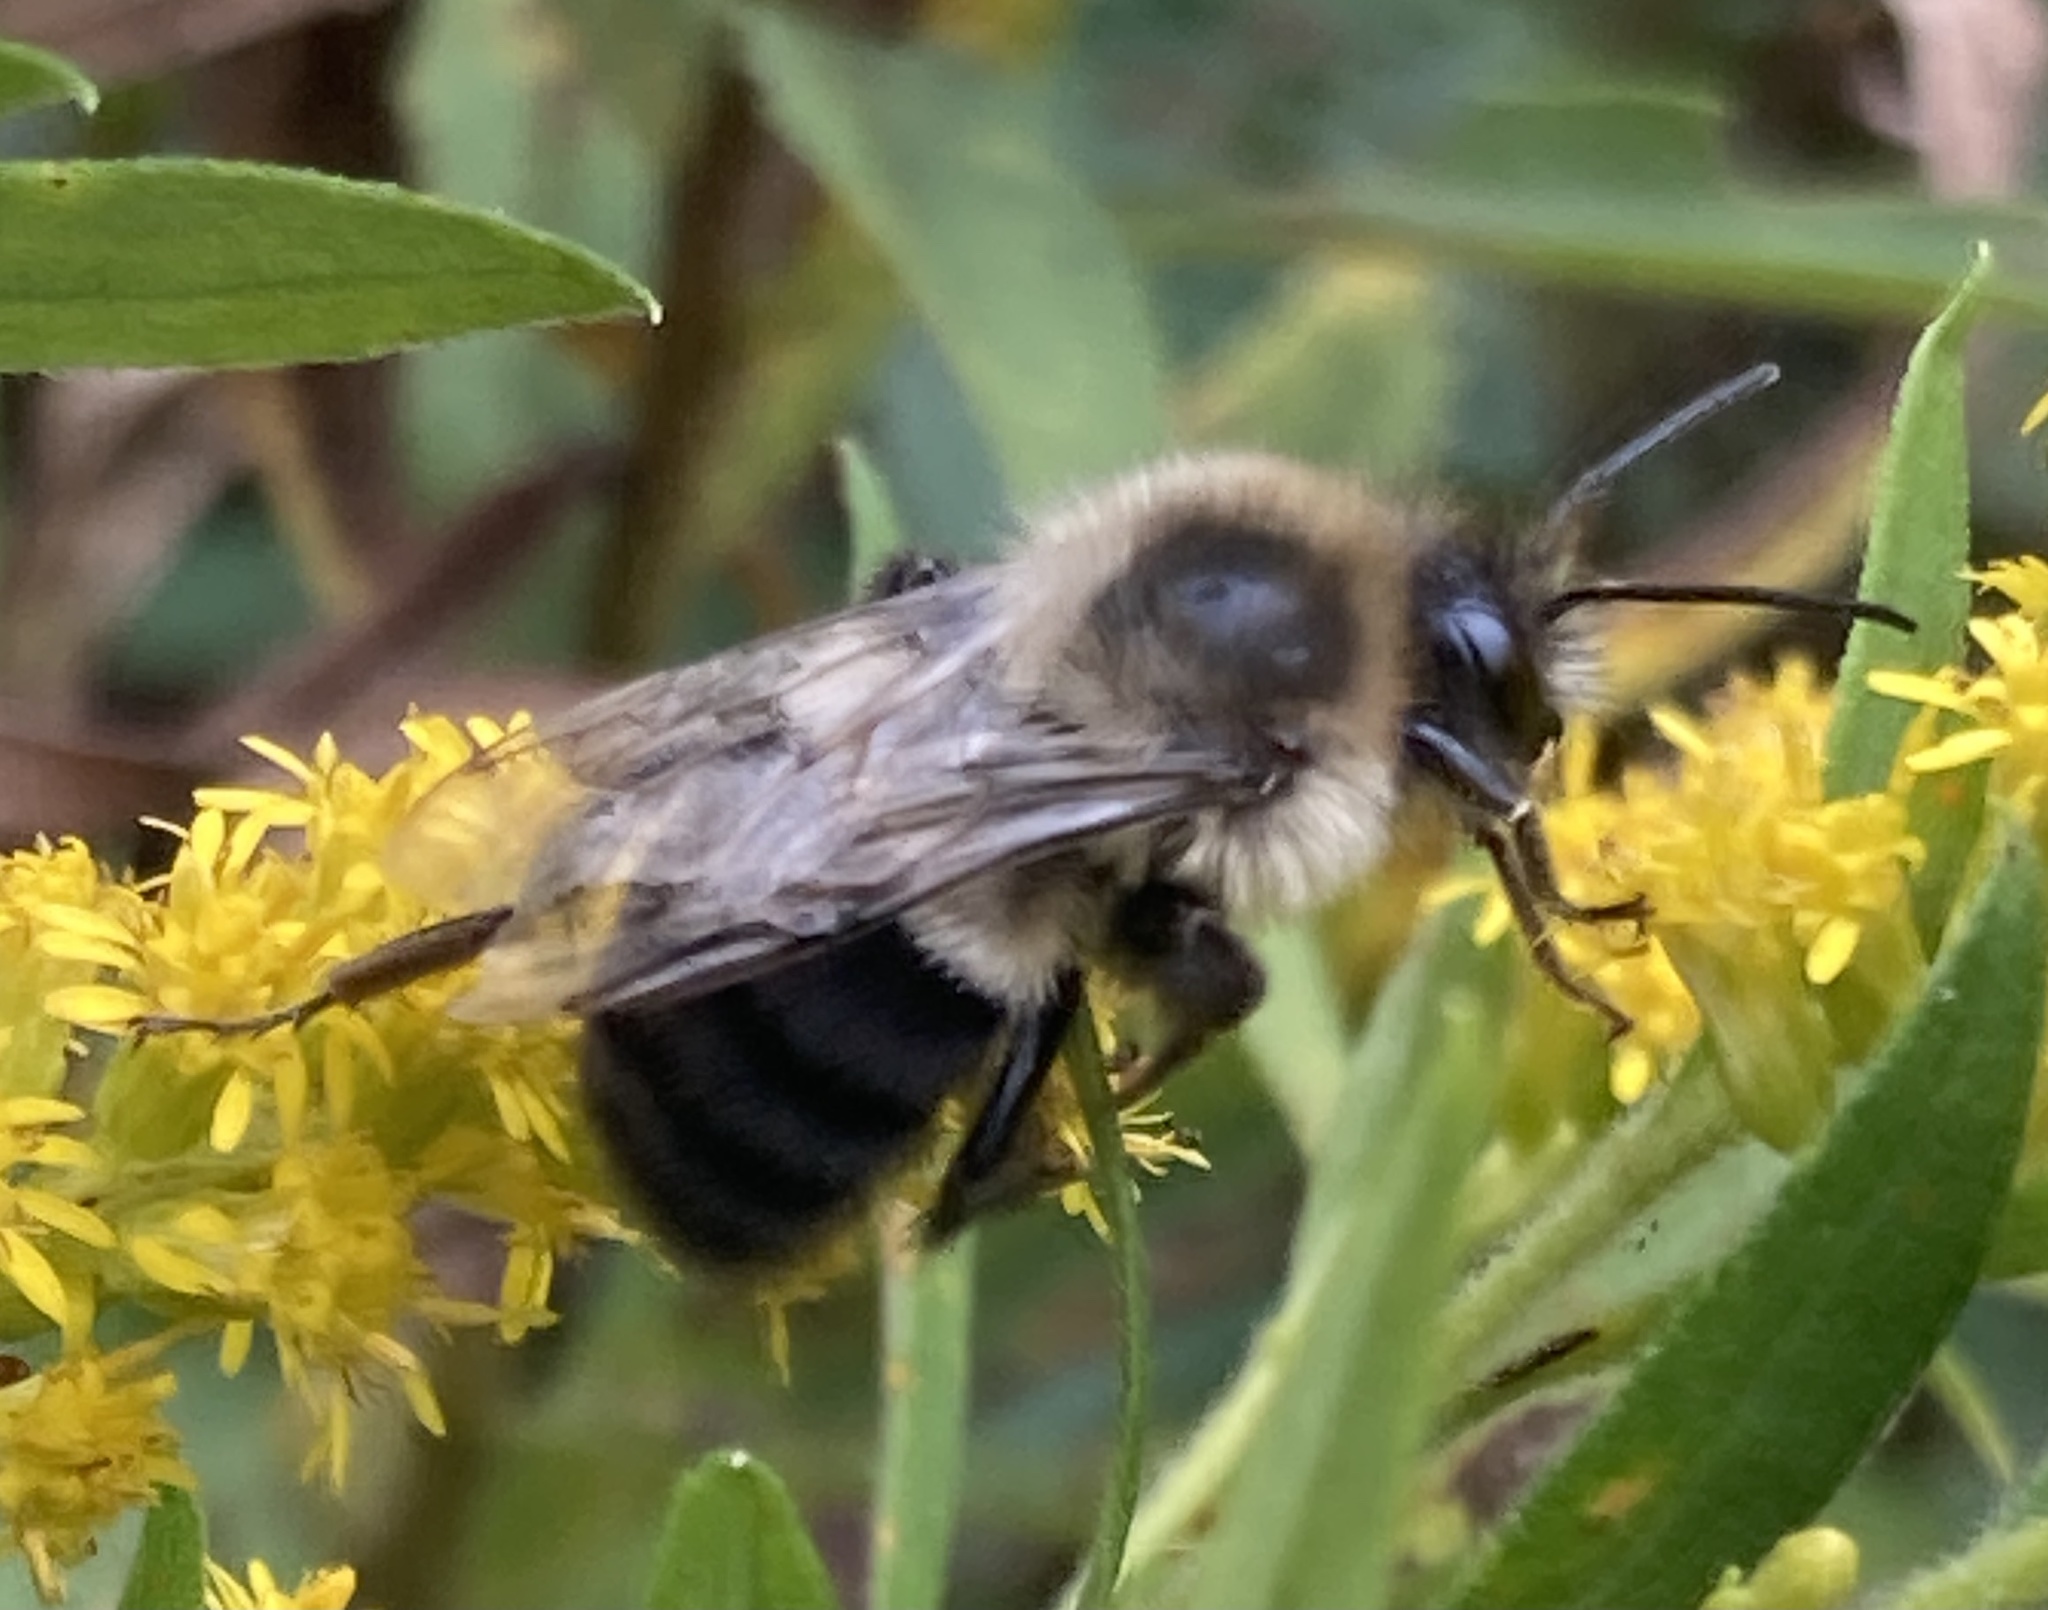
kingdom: Animalia
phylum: Arthropoda
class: Insecta
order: Hymenoptera
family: Apidae
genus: Bombus
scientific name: Bombus impatiens
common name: Common eastern bumble bee
